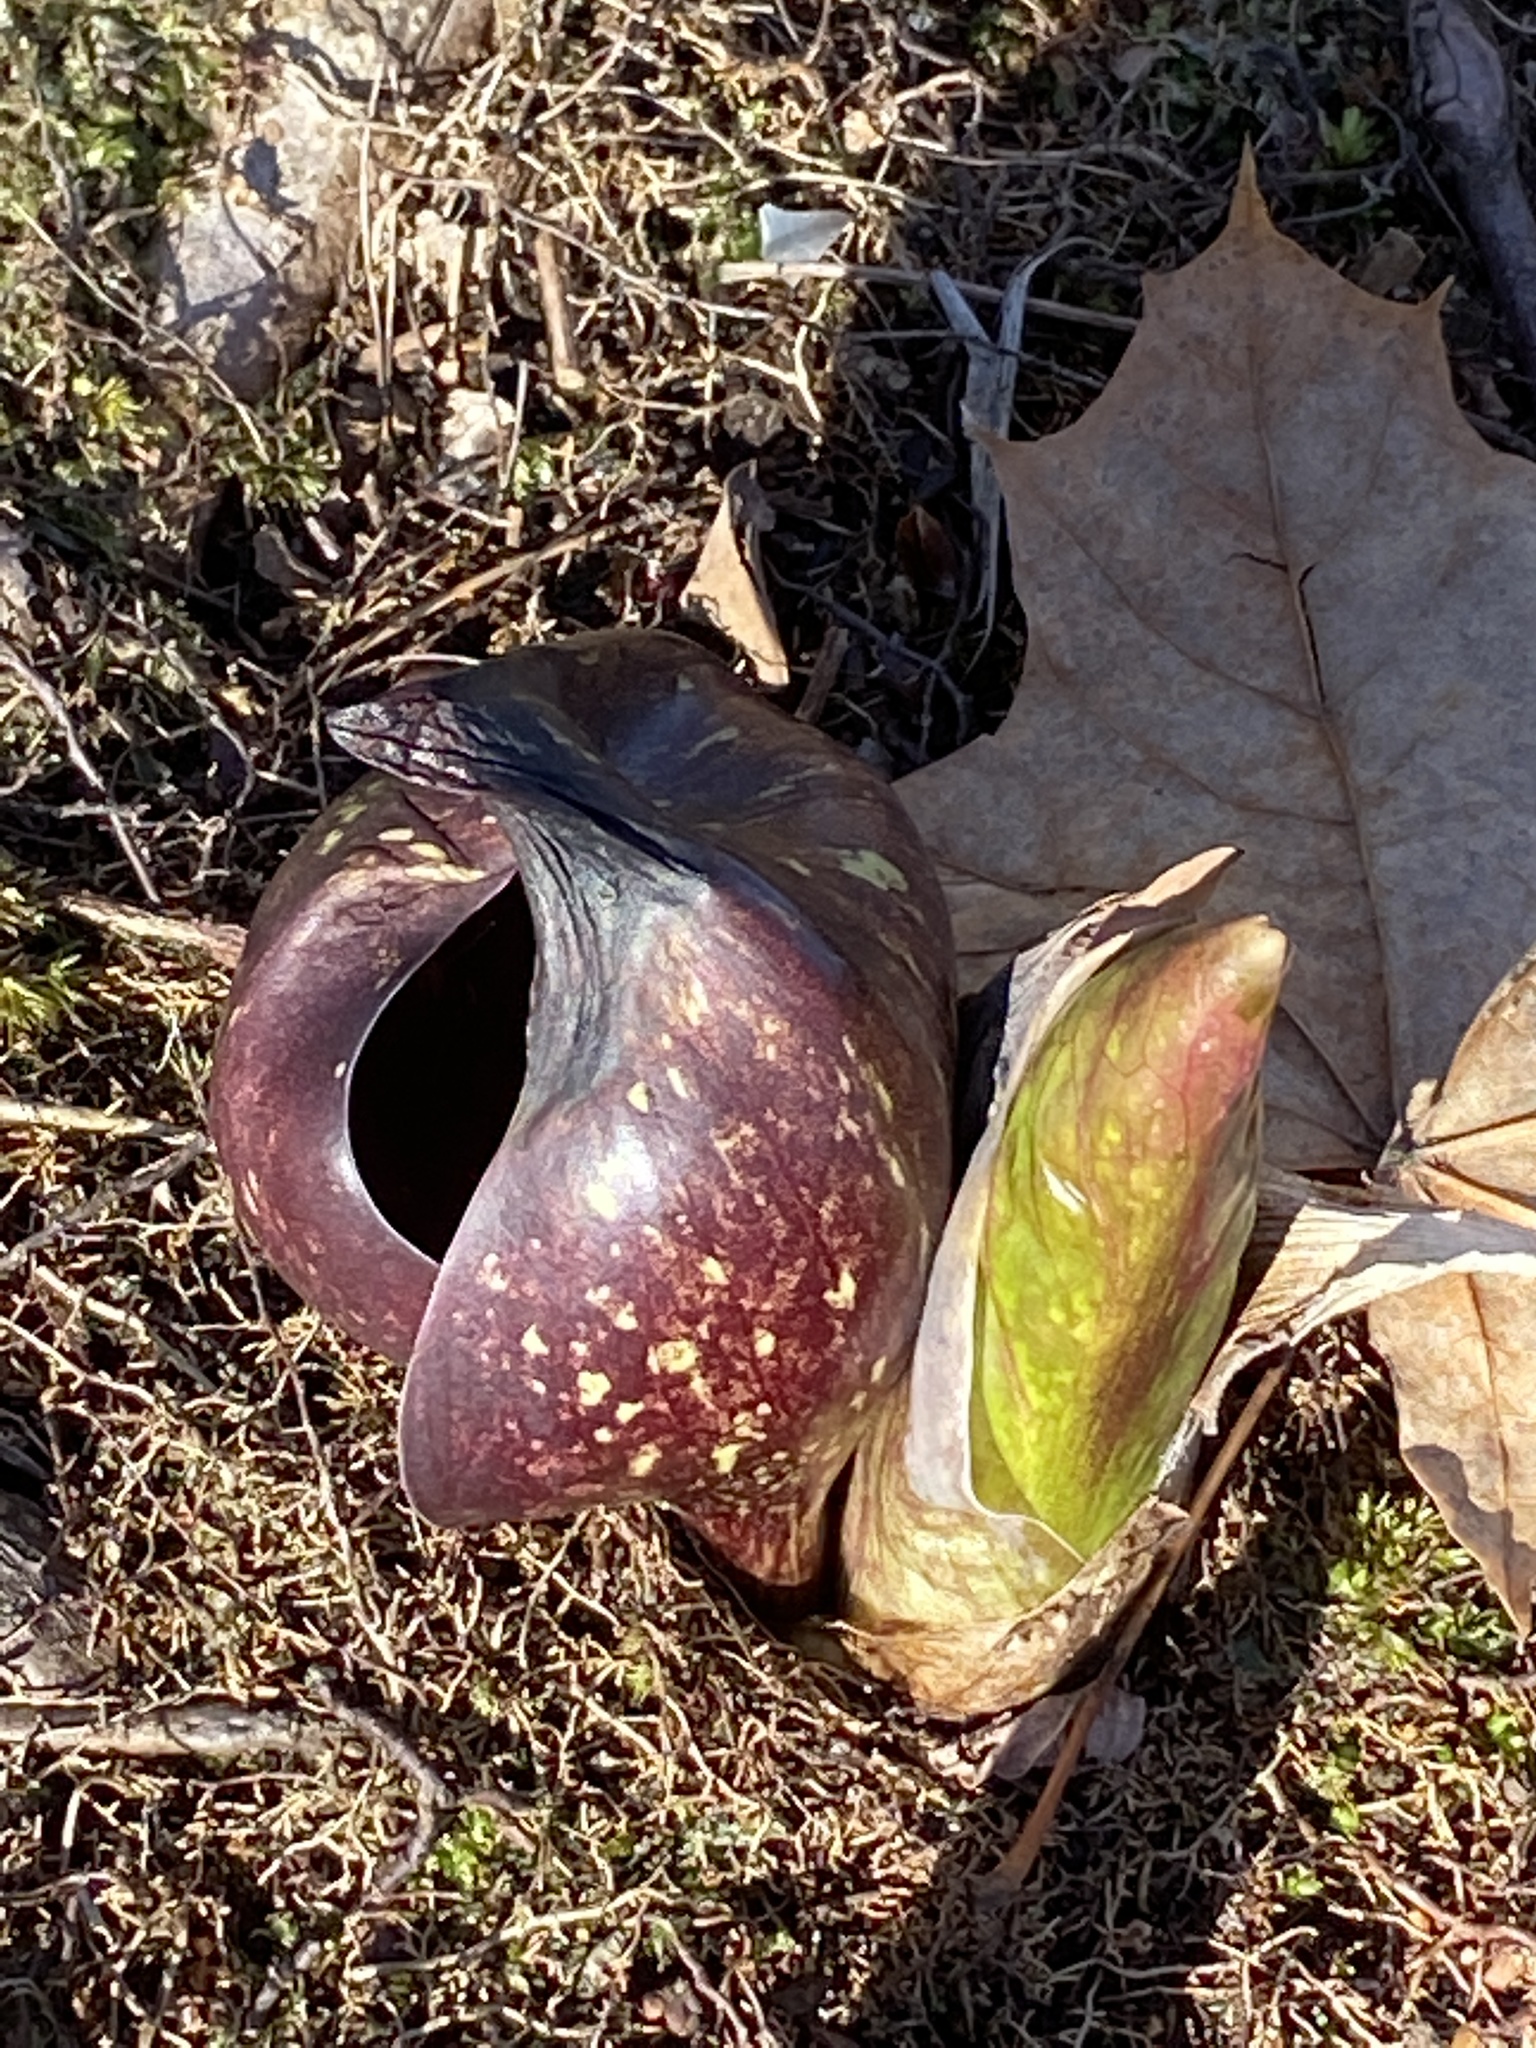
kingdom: Plantae
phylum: Tracheophyta
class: Liliopsida
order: Alismatales
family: Araceae
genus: Symplocarpus
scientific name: Symplocarpus foetidus
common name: Eastern skunk cabbage
